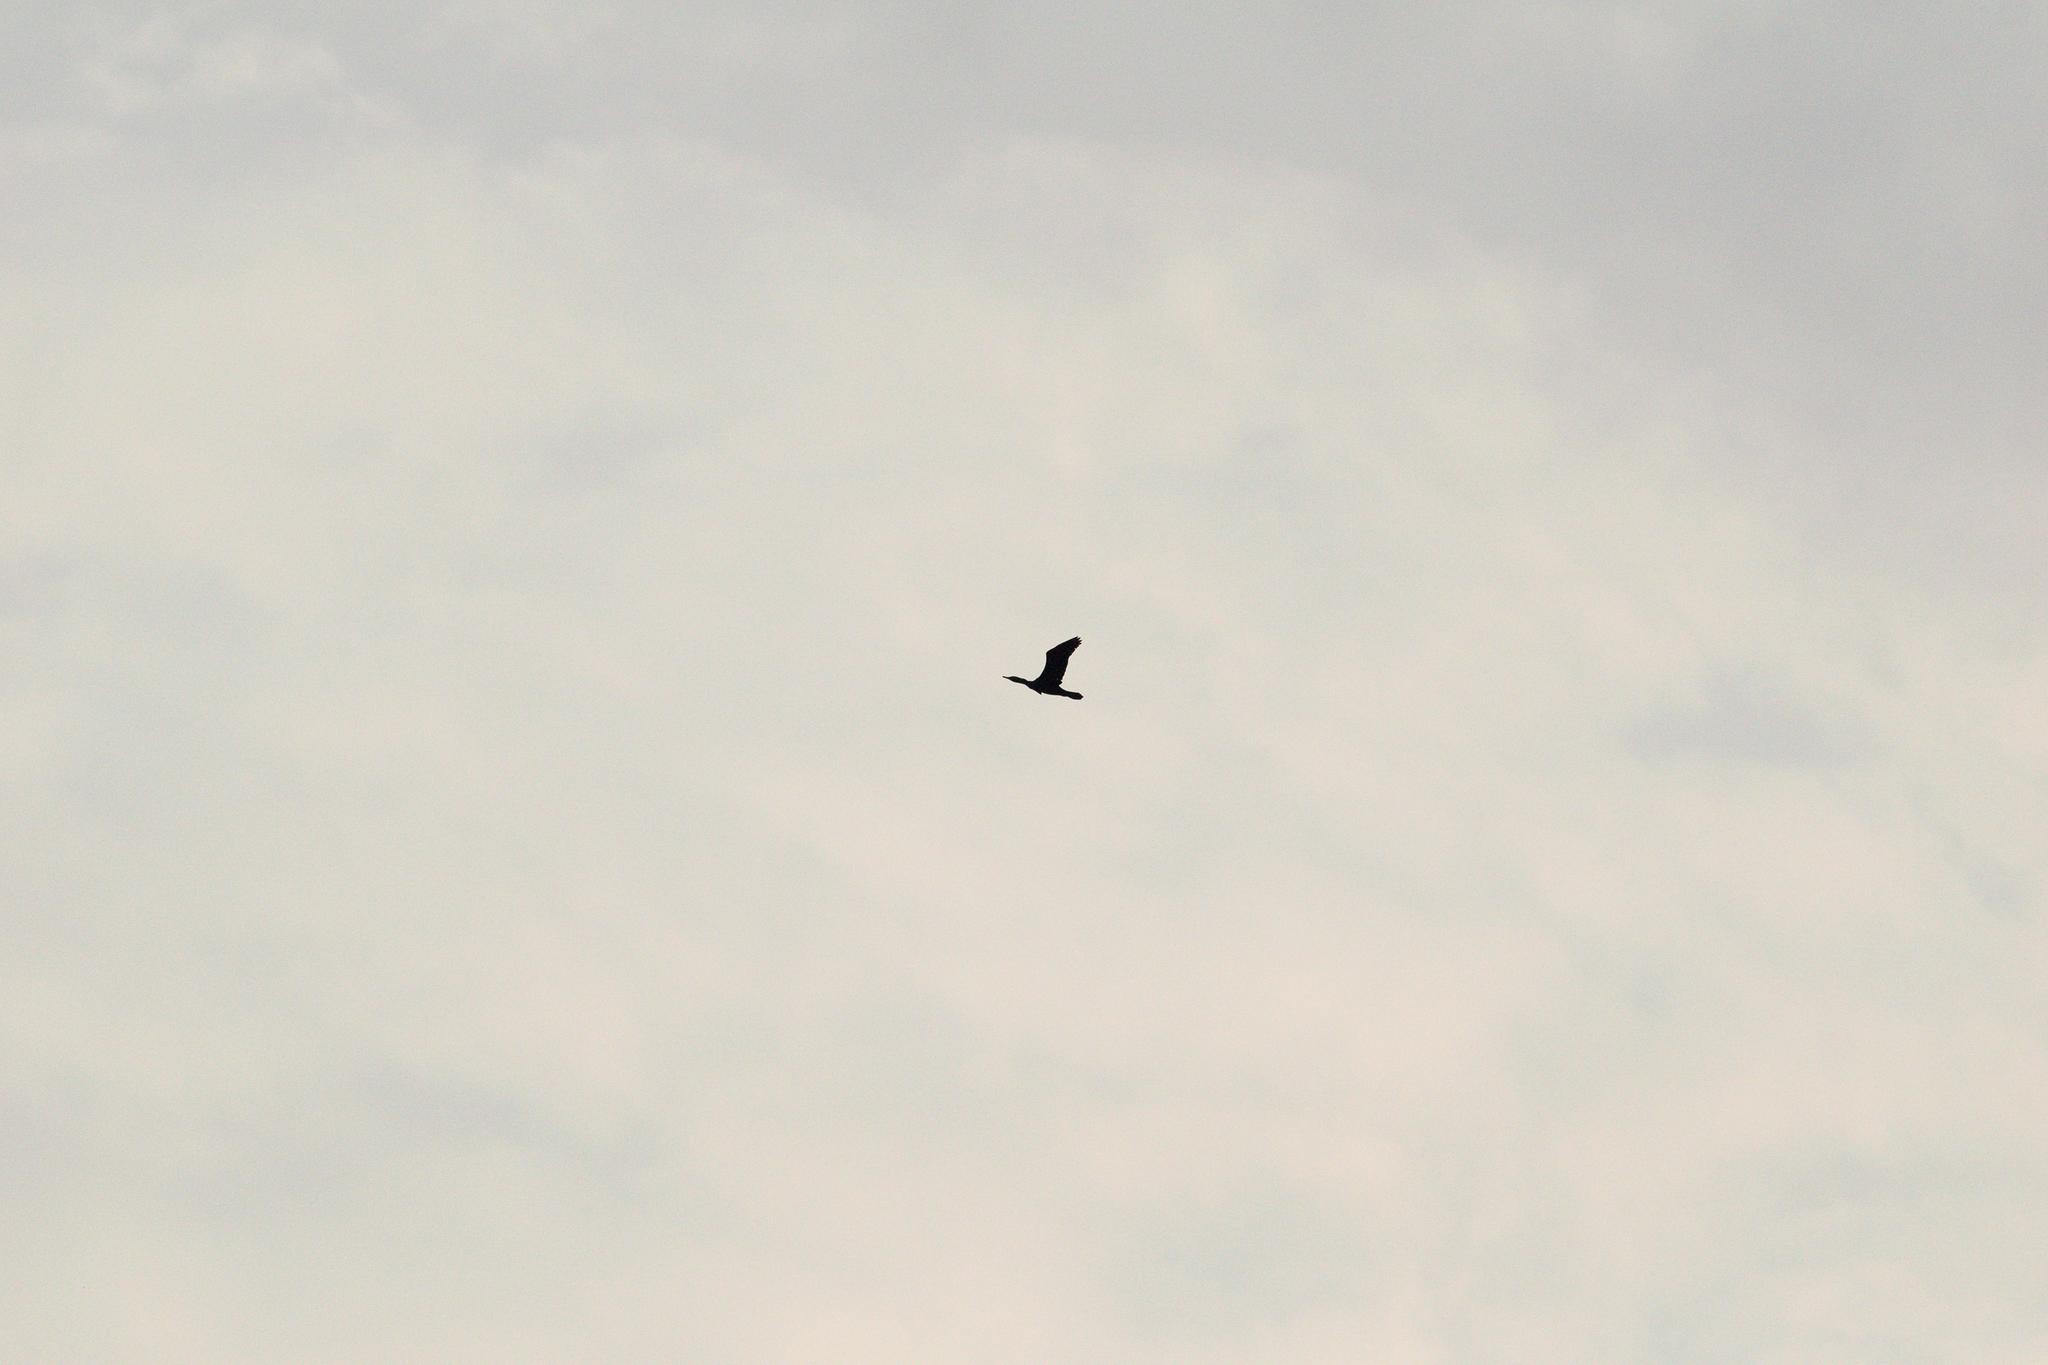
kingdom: Animalia
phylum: Chordata
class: Aves
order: Suliformes
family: Phalacrocoracidae
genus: Phalacrocorax
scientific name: Phalacrocorax fuscicollis
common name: Indian cormorant
